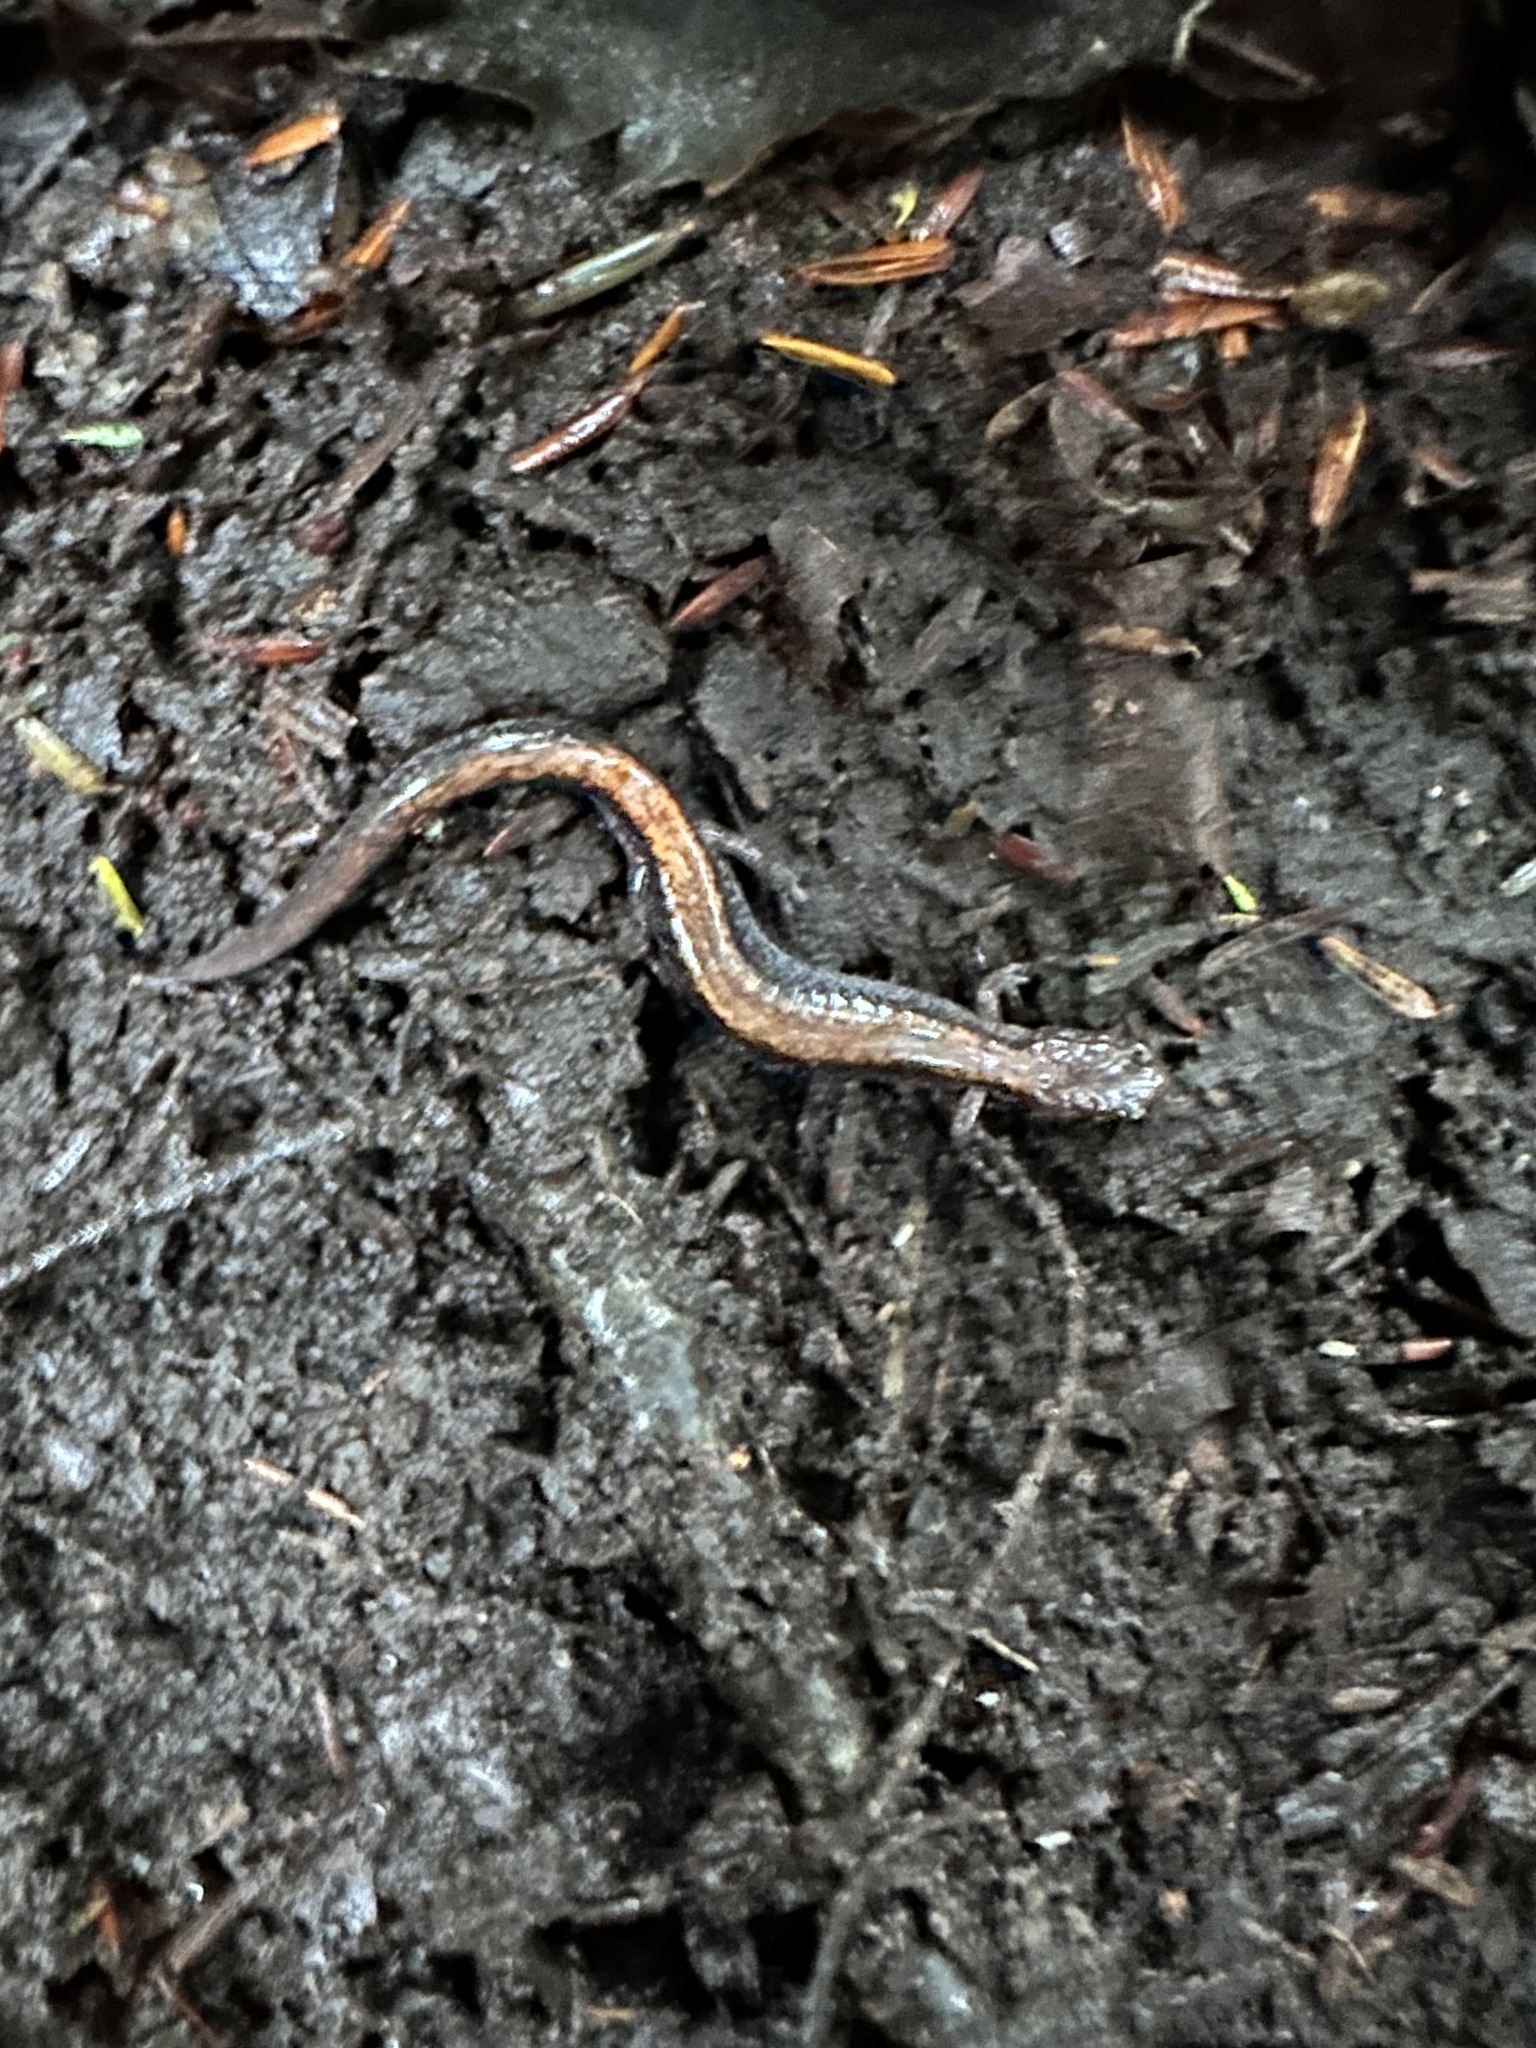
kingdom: Animalia
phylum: Chordata
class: Amphibia
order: Caudata
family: Plethodontidae
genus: Plethodon
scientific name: Plethodon cinereus
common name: Redback salamander
